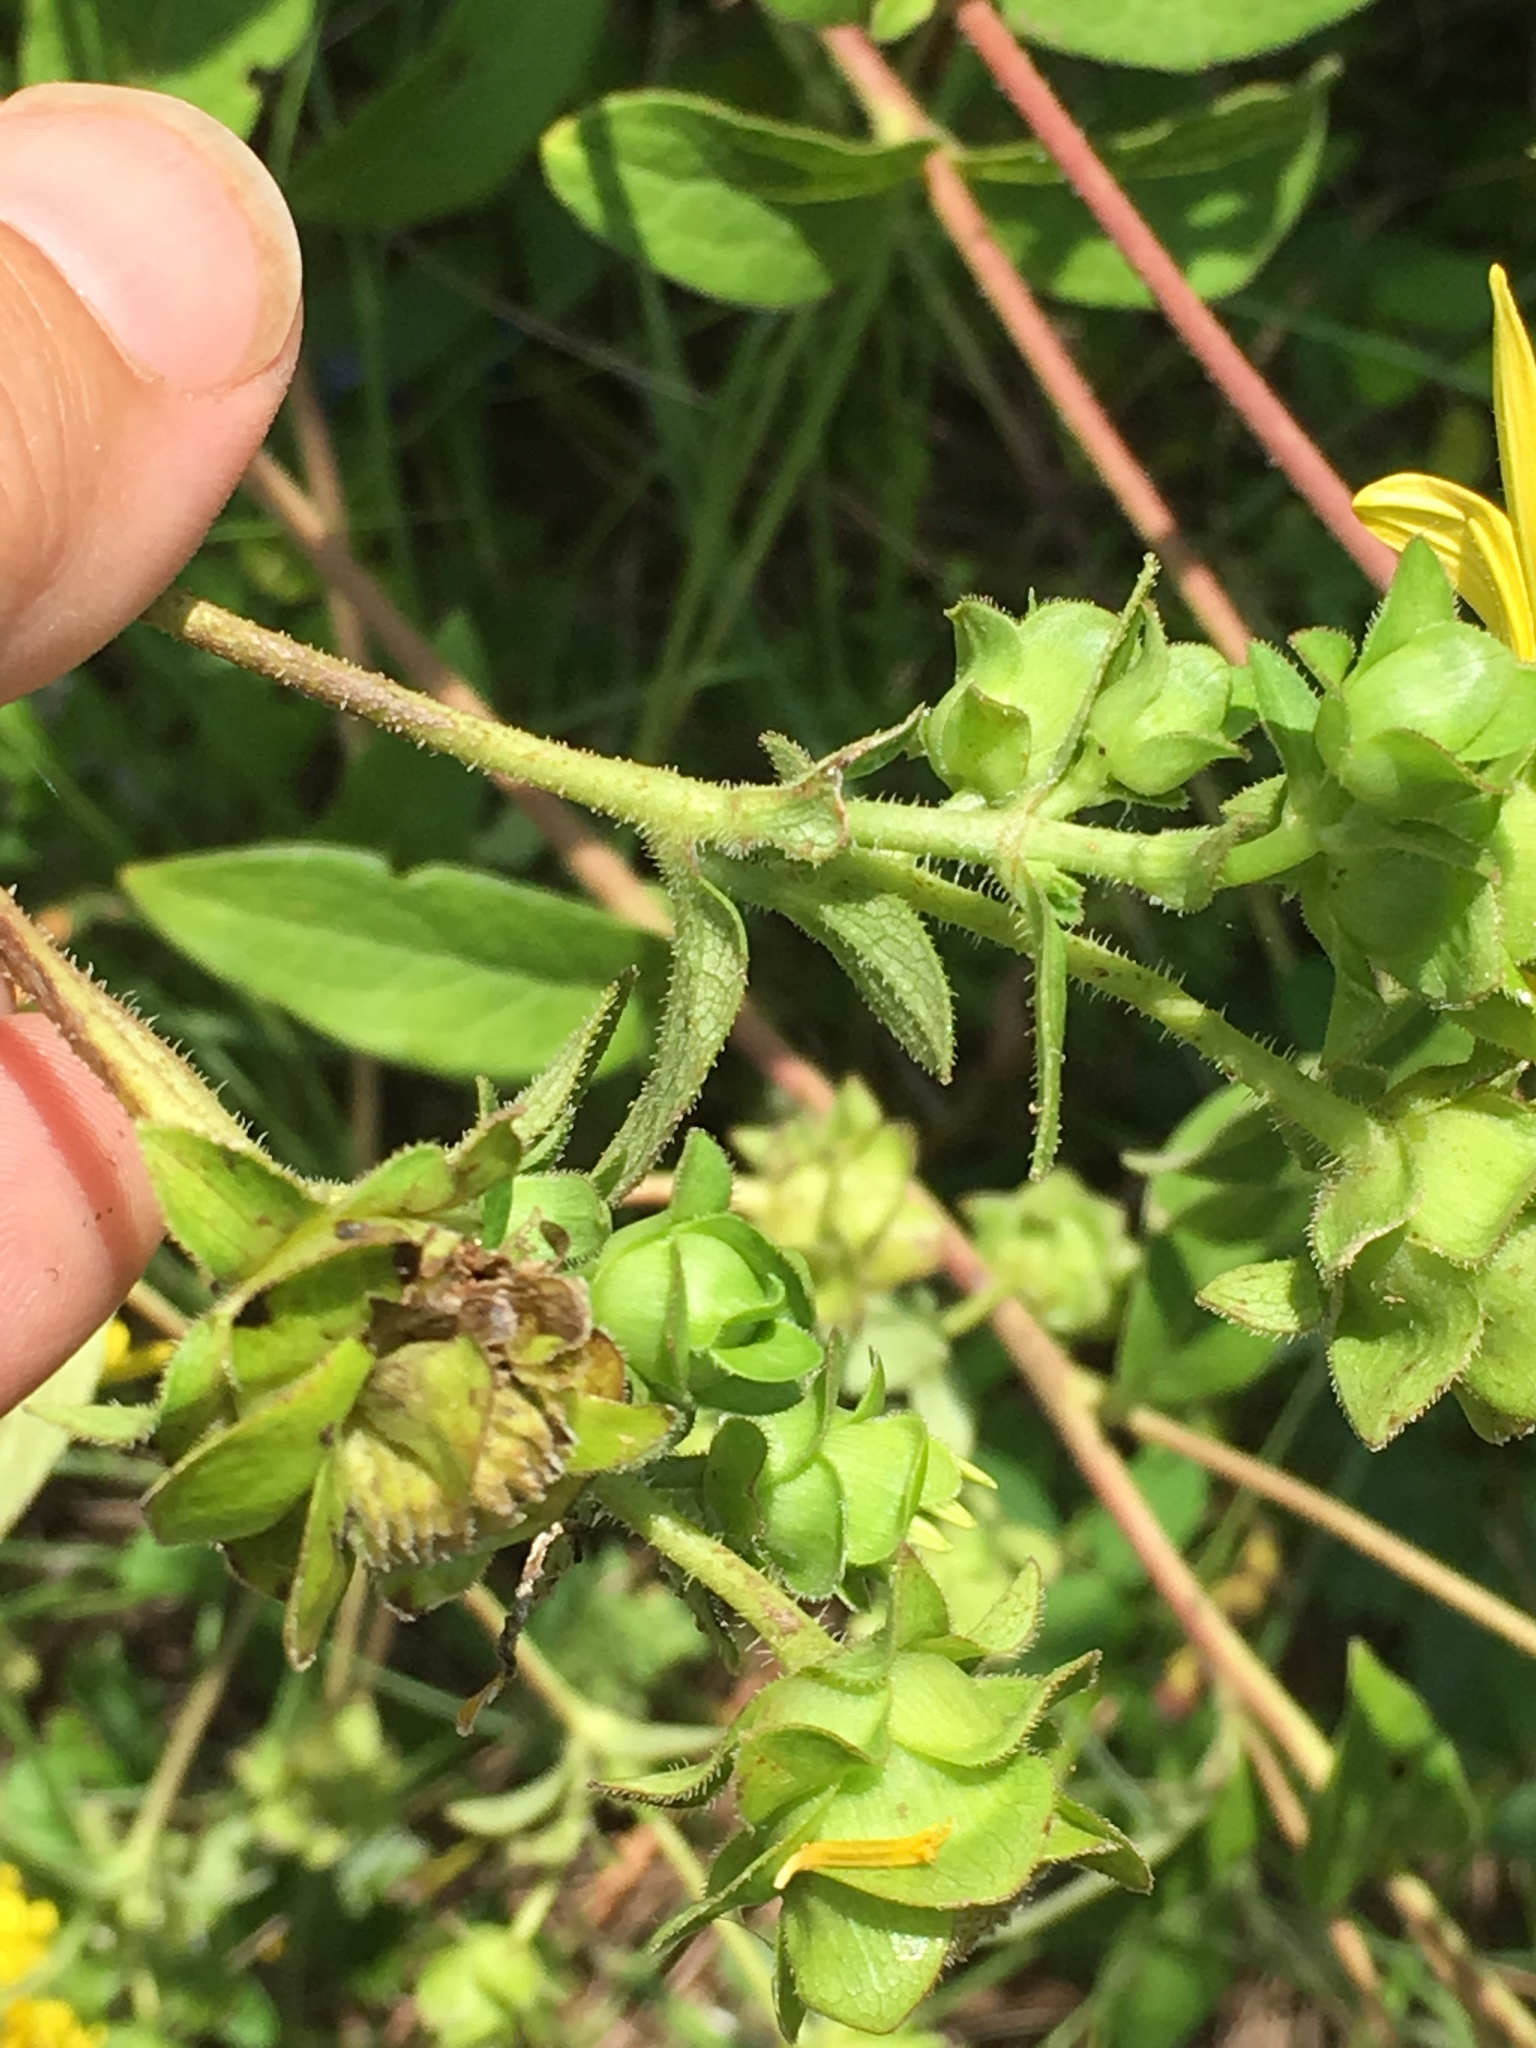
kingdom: Plantae
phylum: Tracheophyta
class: Magnoliopsida
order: Asterales
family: Asteraceae
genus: Silphium
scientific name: Silphium asteriscus
